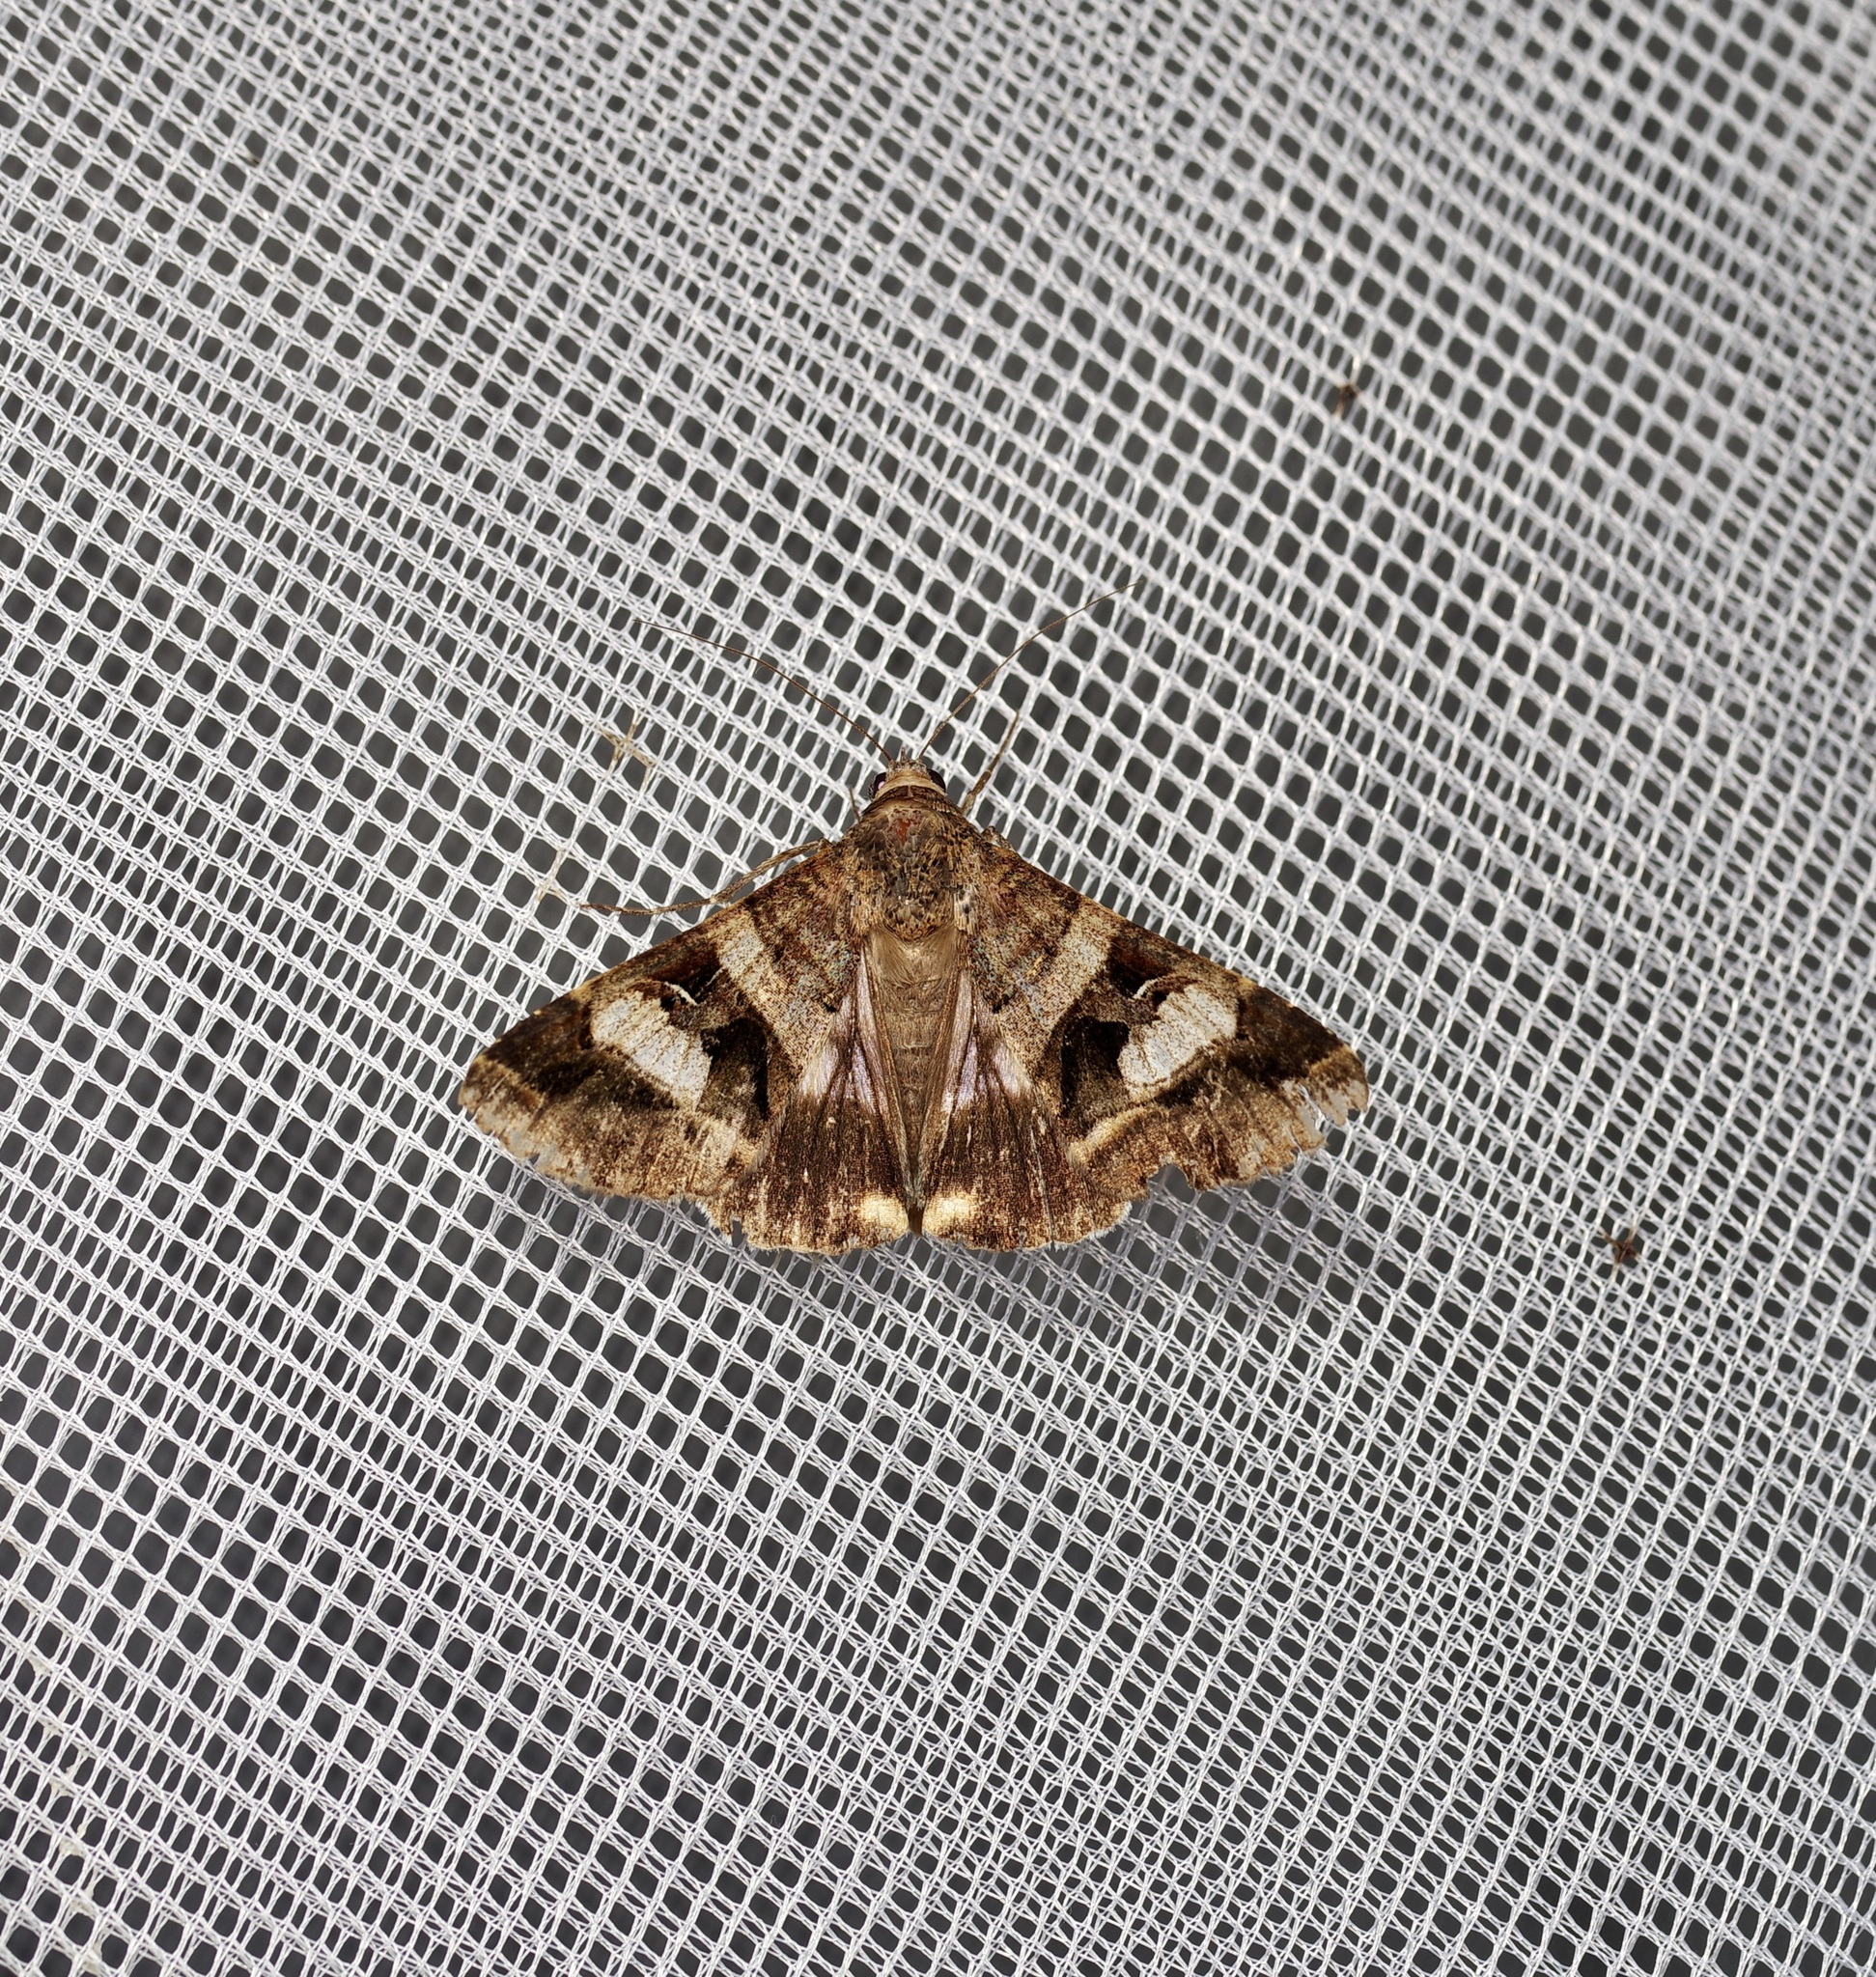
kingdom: Animalia
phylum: Arthropoda
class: Insecta
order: Lepidoptera
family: Erebidae
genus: Melipotis
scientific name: Melipotis perpendicularis
